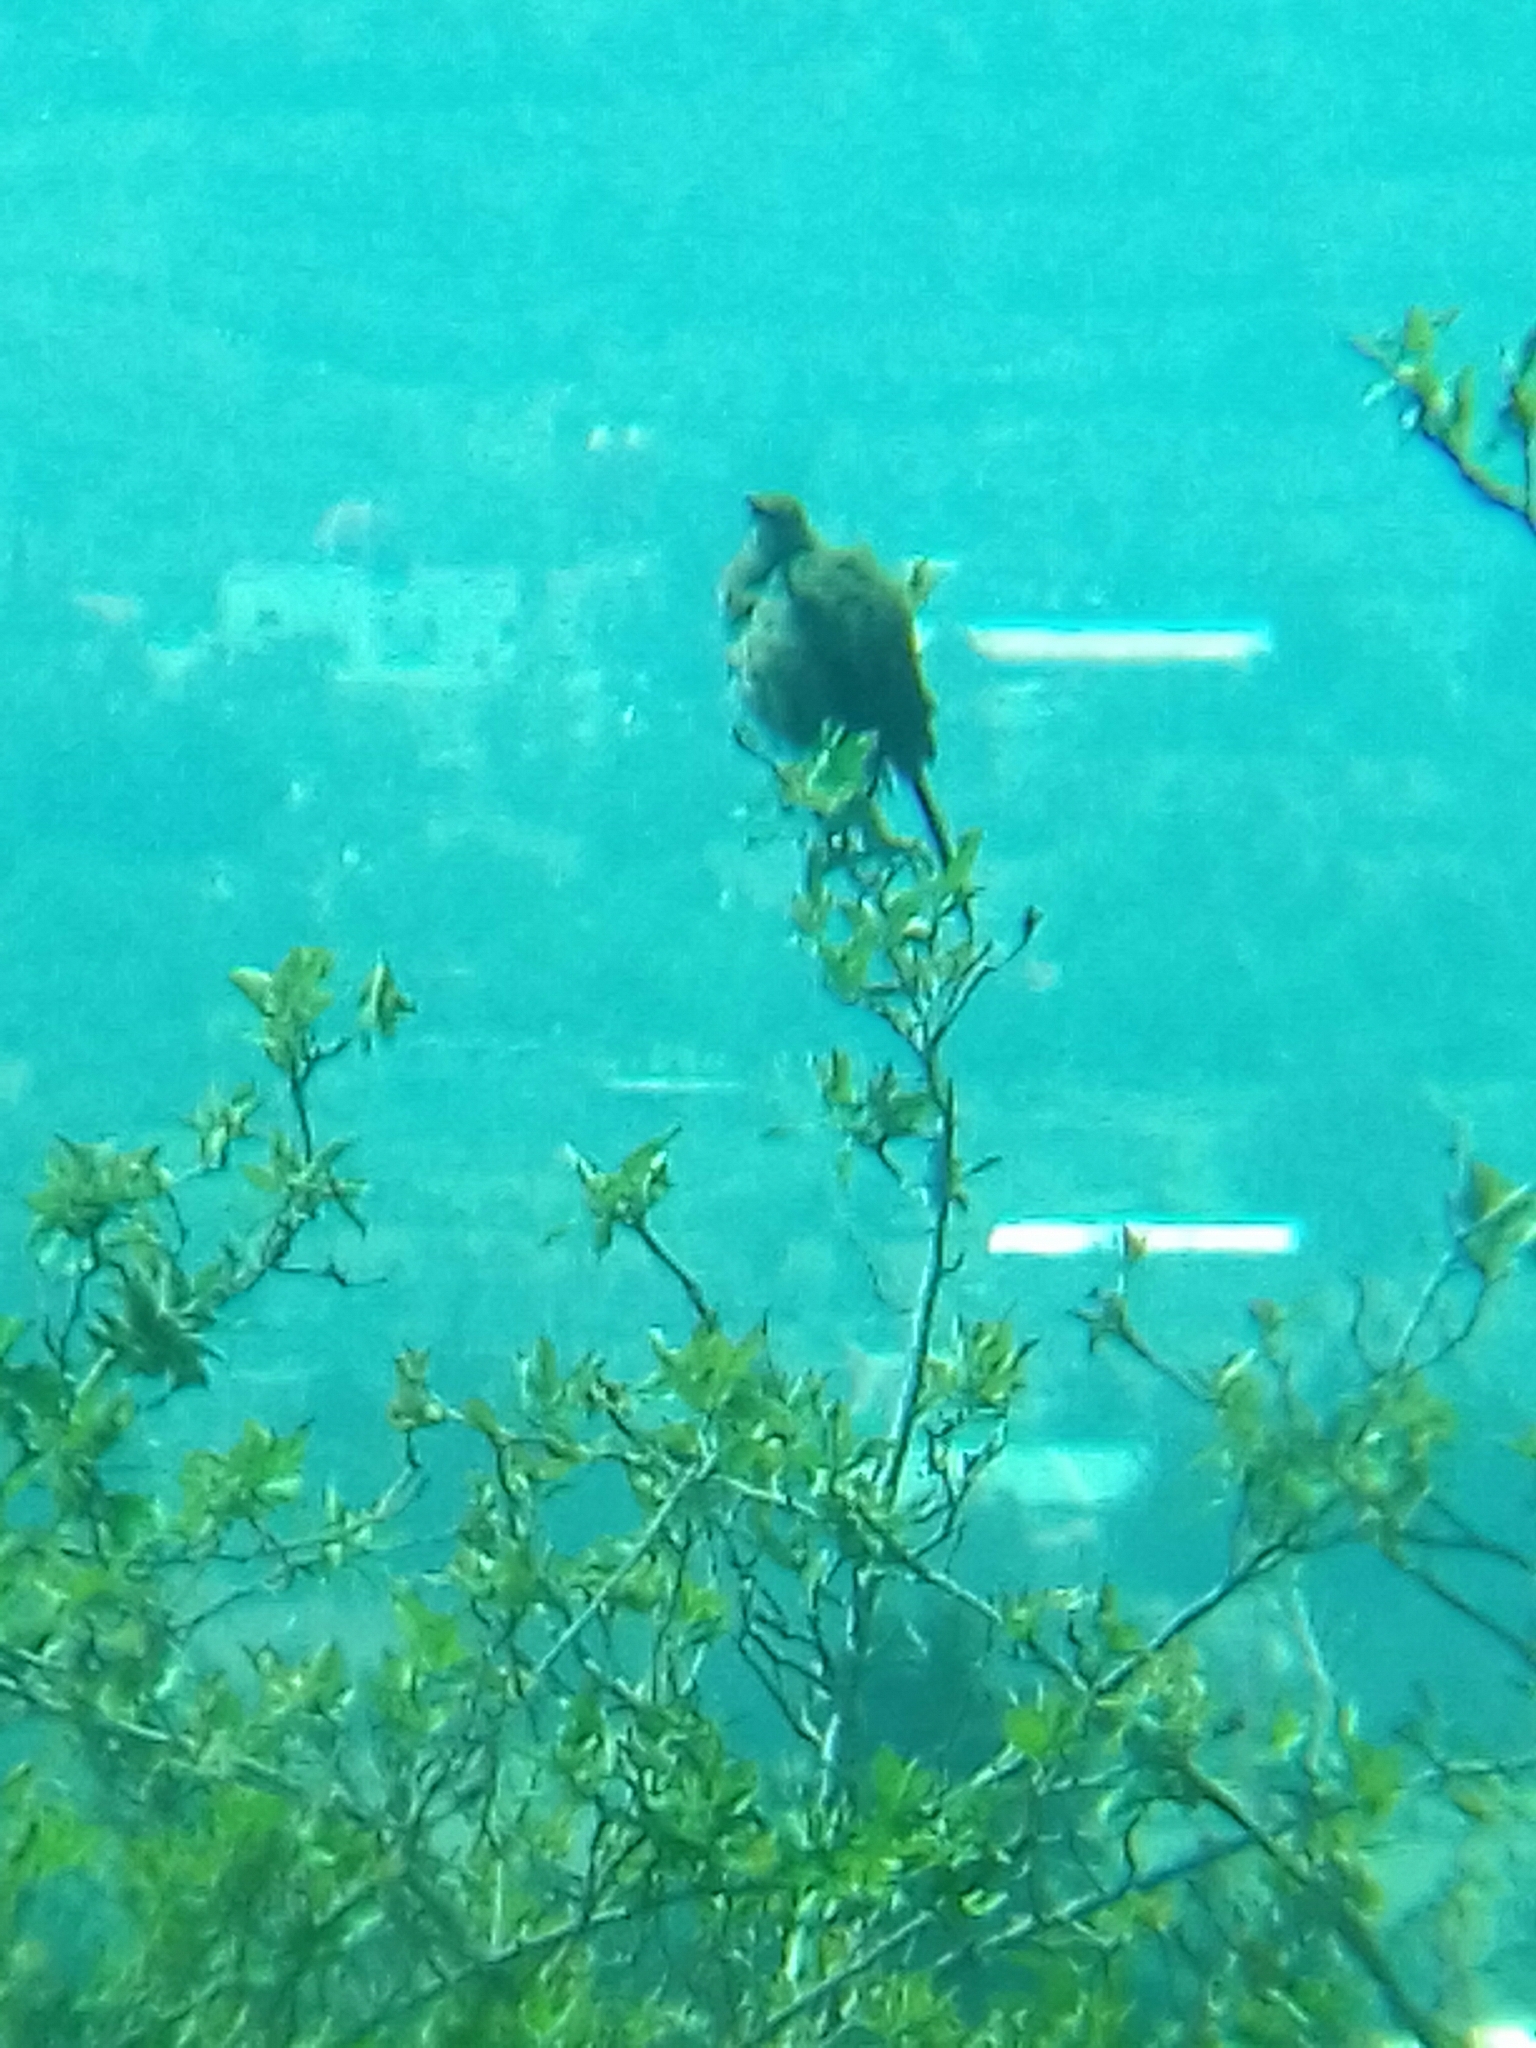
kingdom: Animalia
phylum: Chordata
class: Aves
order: Passeriformes
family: Mimidae
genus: Toxostoma
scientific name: Toxostoma curvirostre
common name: Curve-billed thrasher
